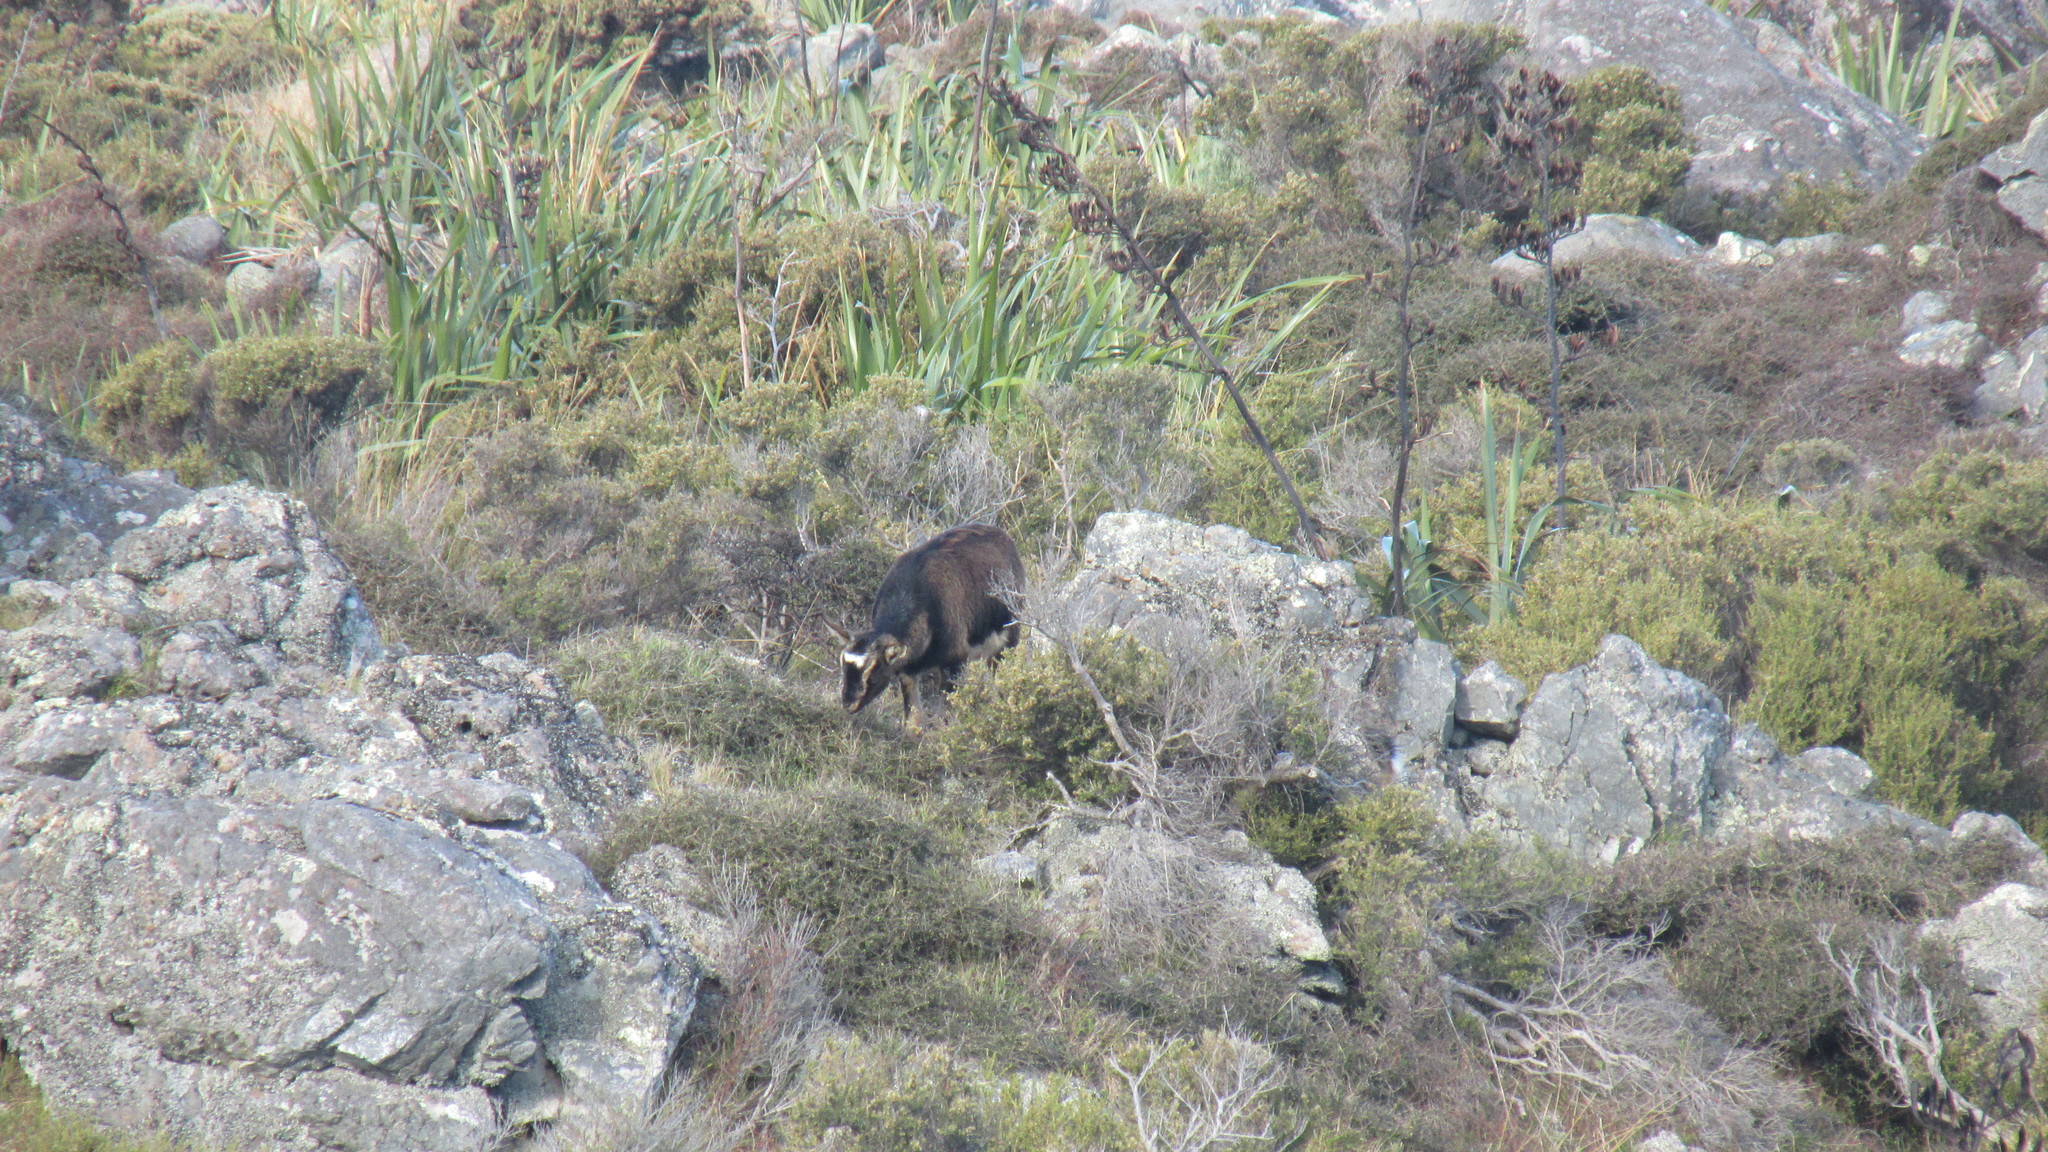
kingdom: Animalia
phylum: Chordata
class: Mammalia
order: Artiodactyla
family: Bovidae
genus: Capra
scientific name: Capra hircus
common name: Domestic goat
